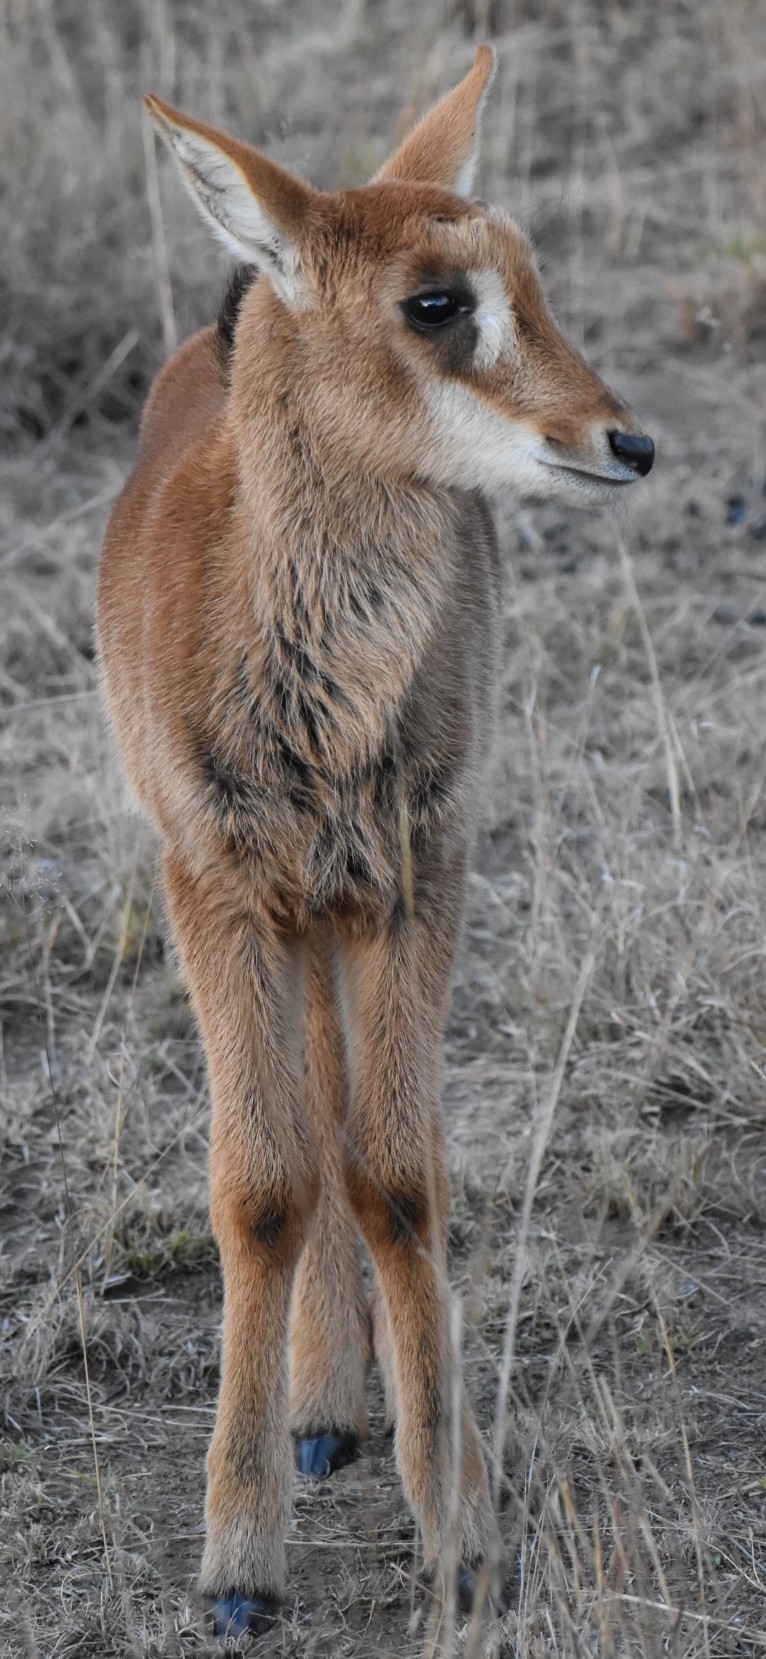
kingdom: Animalia
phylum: Chordata
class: Mammalia
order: Artiodactyla
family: Bovidae
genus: Hippotragus
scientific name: Hippotragus niger
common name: Sable antelope
